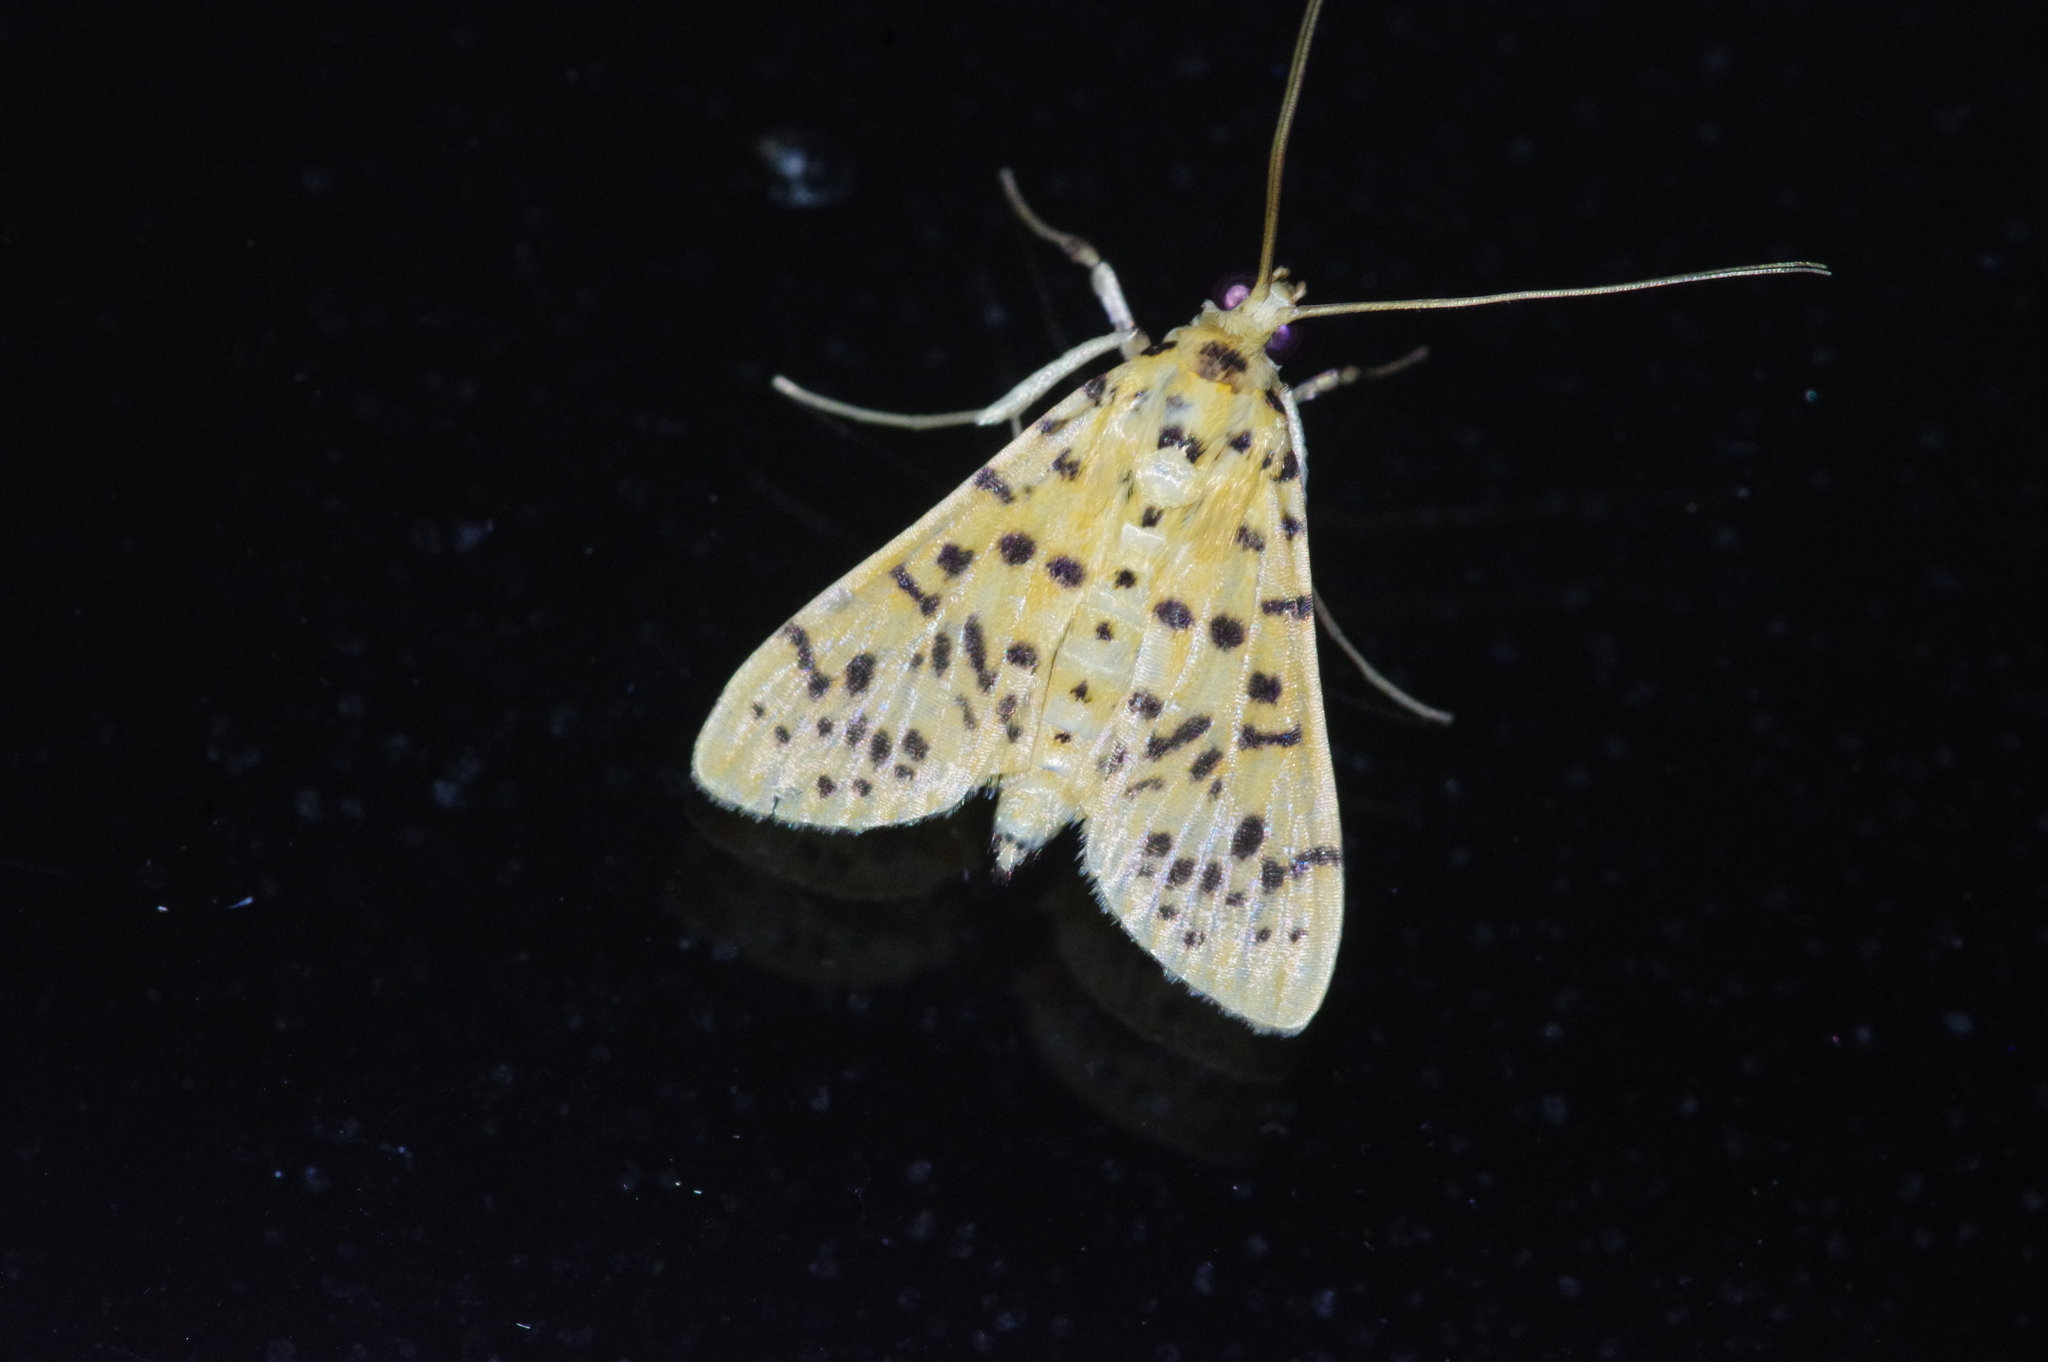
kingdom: Animalia
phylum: Arthropoda
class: Insecta
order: Lepidoptera
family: Crambidae
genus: Conogethes
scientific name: Conogethes punctiferalis
